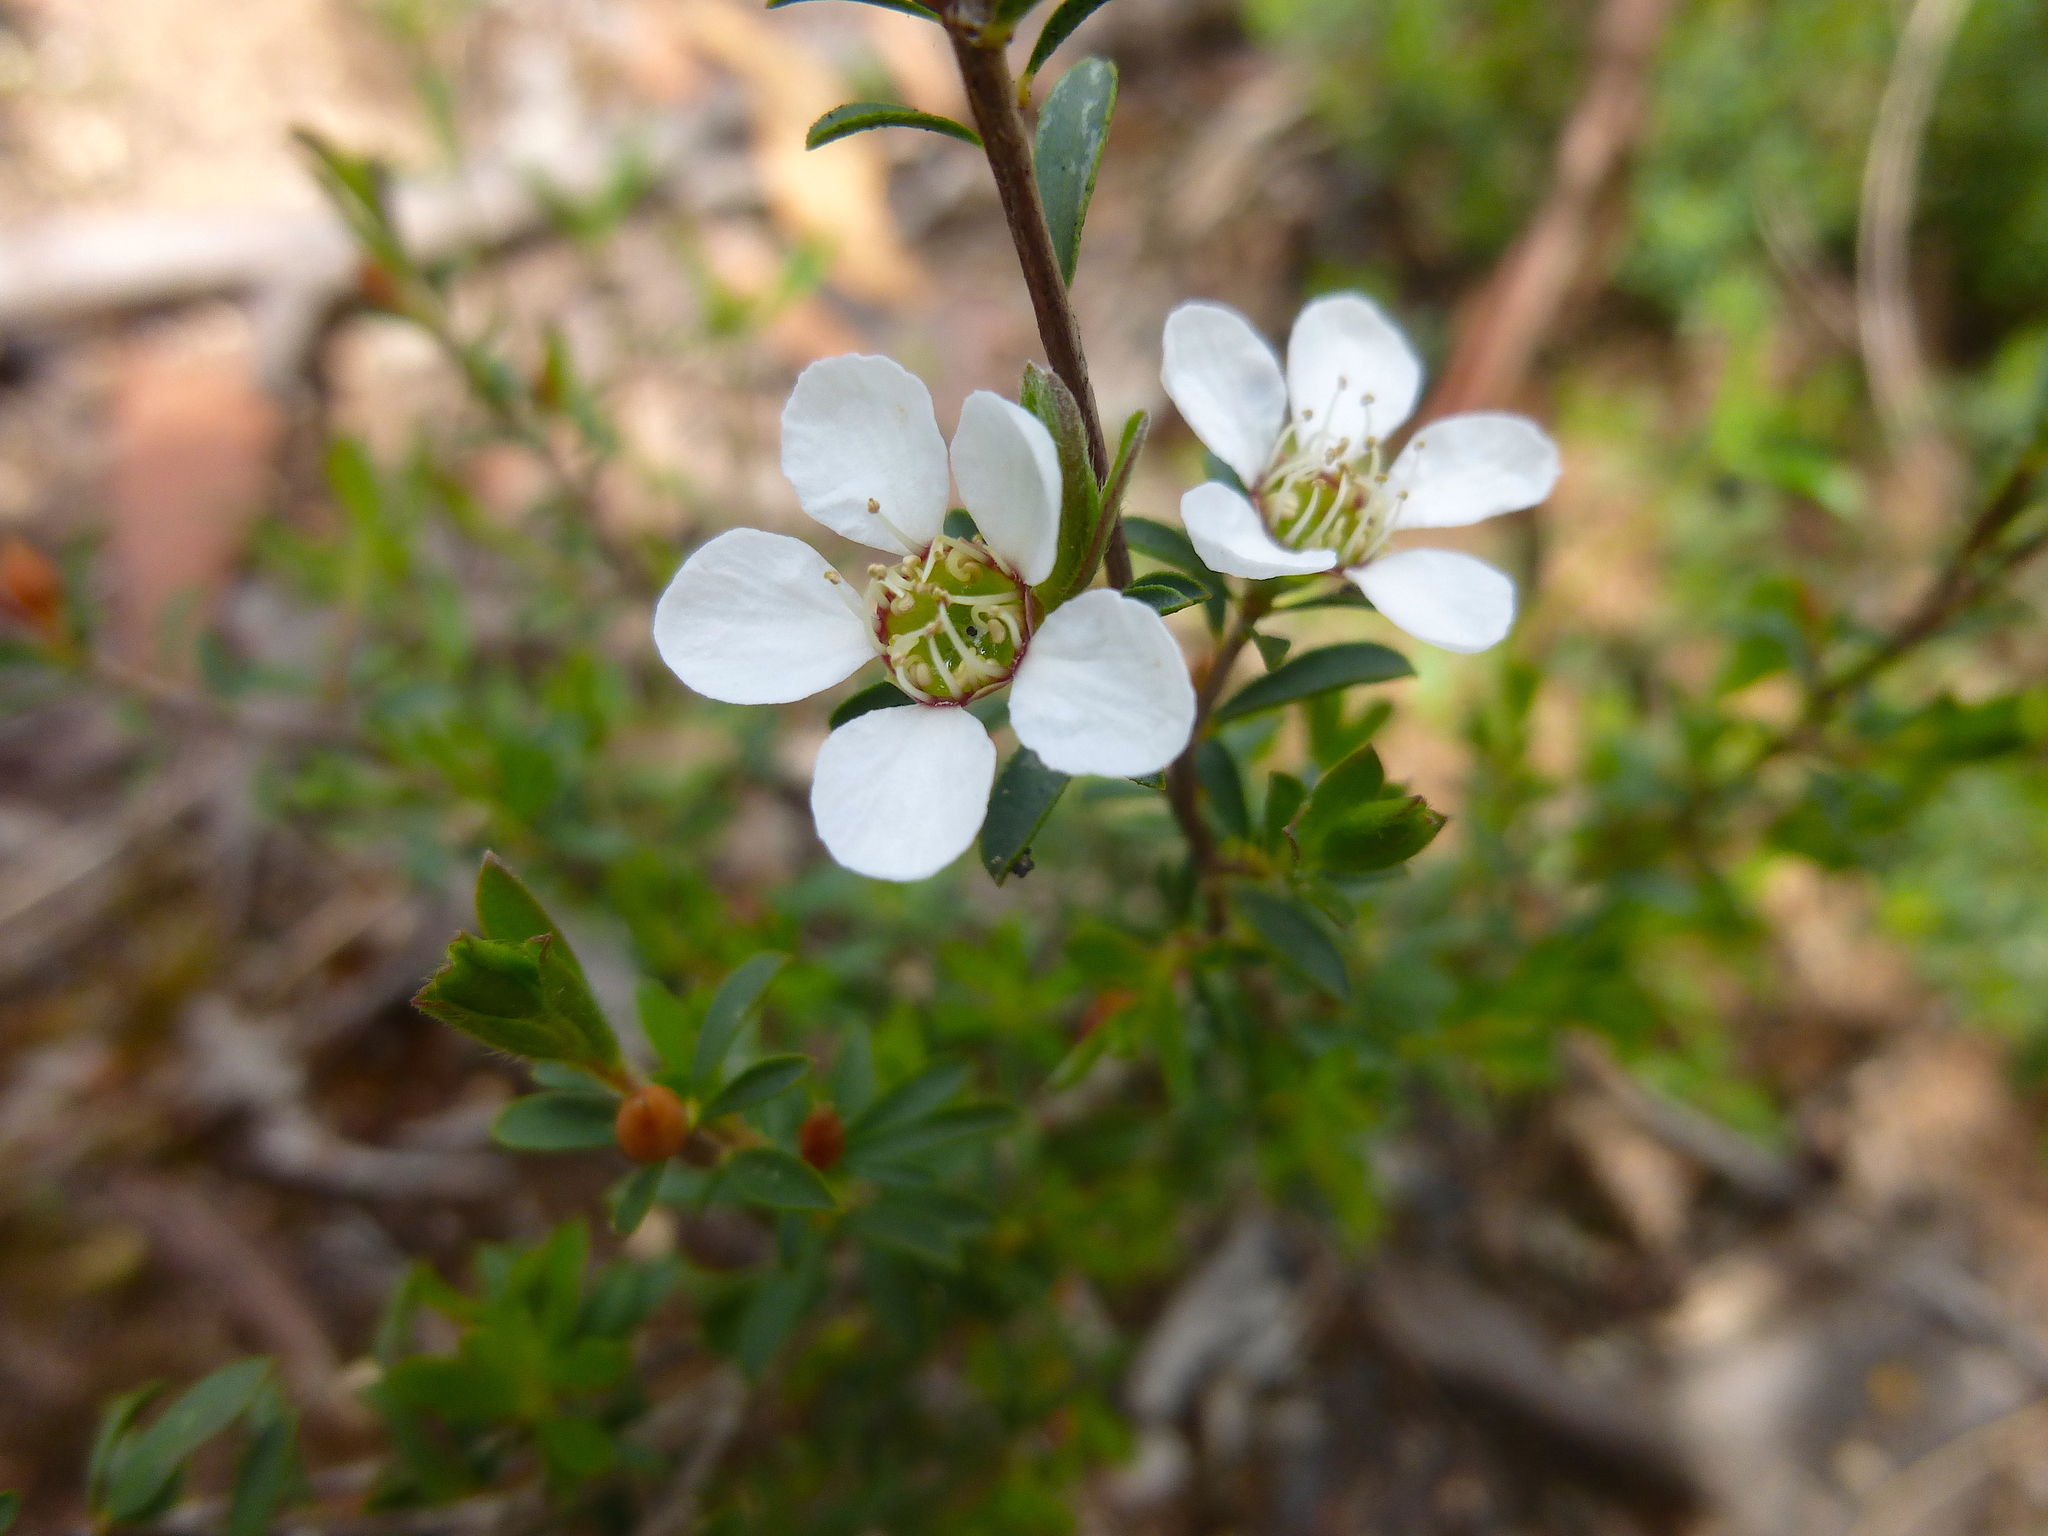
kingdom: Plantae
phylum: Tracheophyta
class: Magnoliopsida
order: Myrtales
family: Myrtaceae
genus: Leptospermum
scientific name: Leptospermum myrsinoides
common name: Heath teatree
